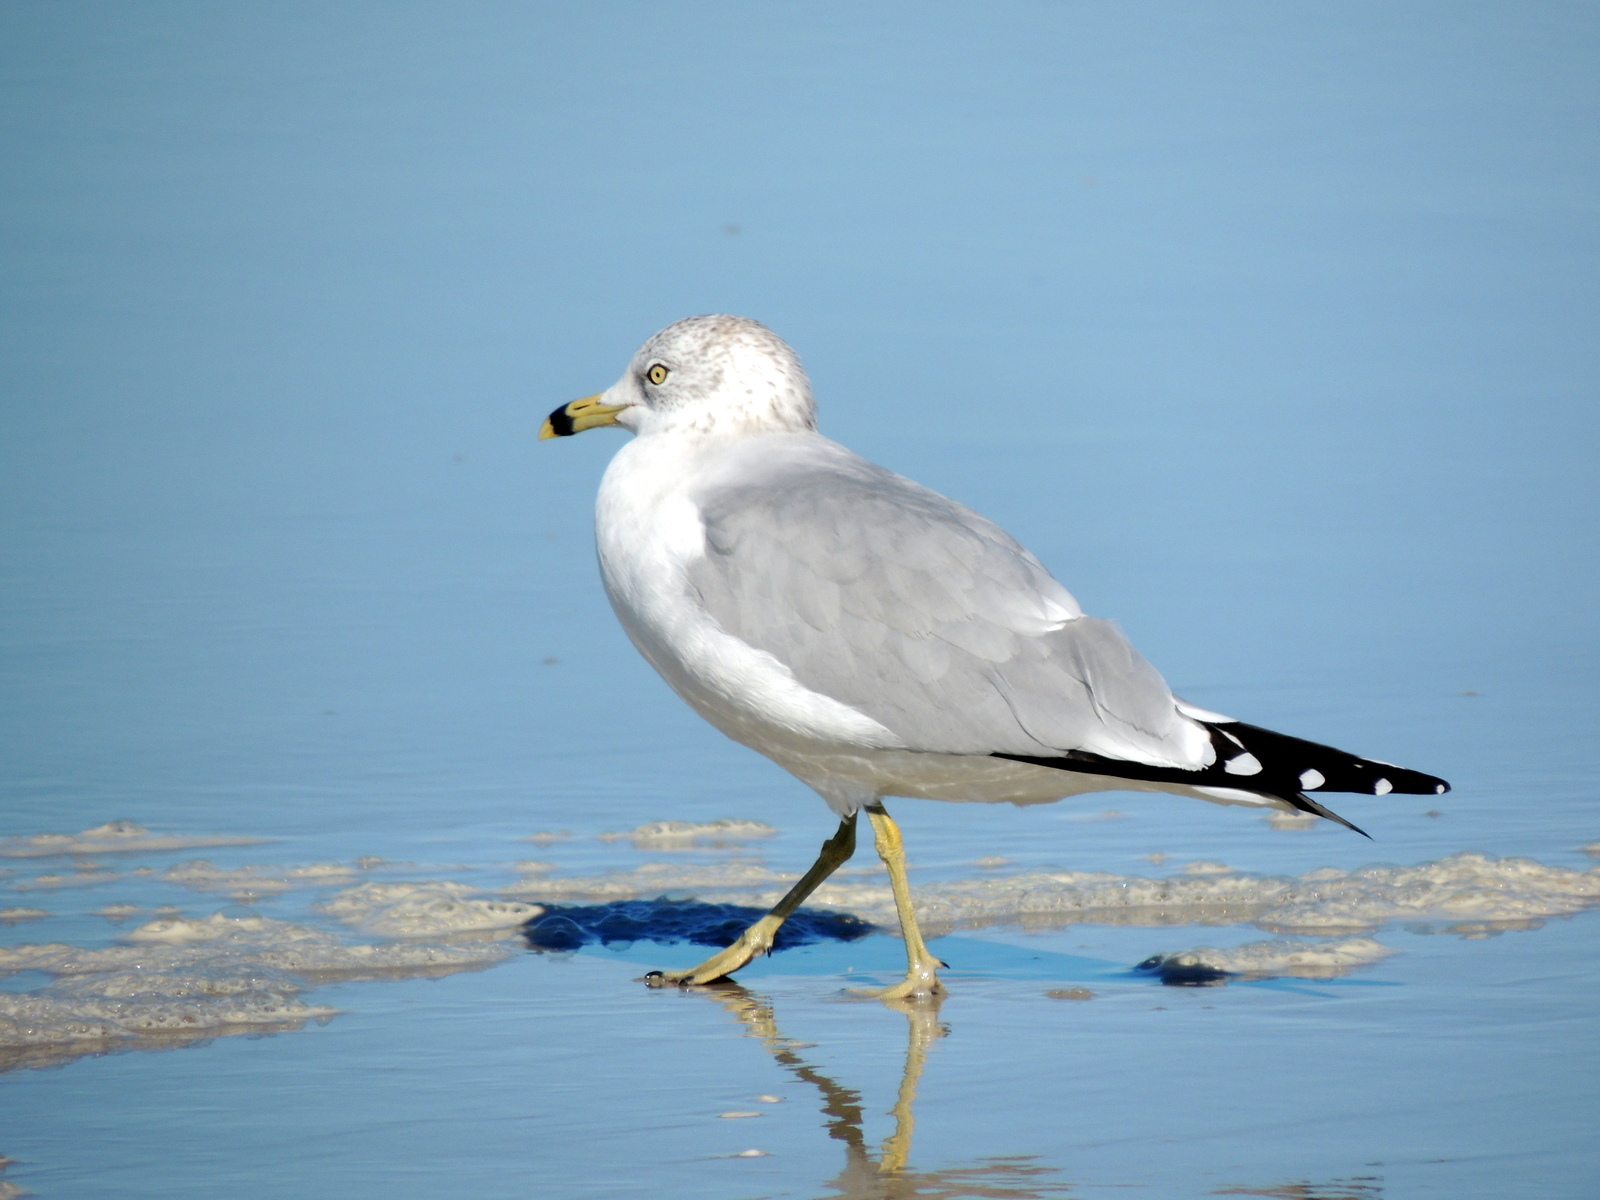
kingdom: Animalia
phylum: Chordata
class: Aves
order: Charadriiformes
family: Laridae
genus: Larus
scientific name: Larus delawarensis
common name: Ring-billed gull
